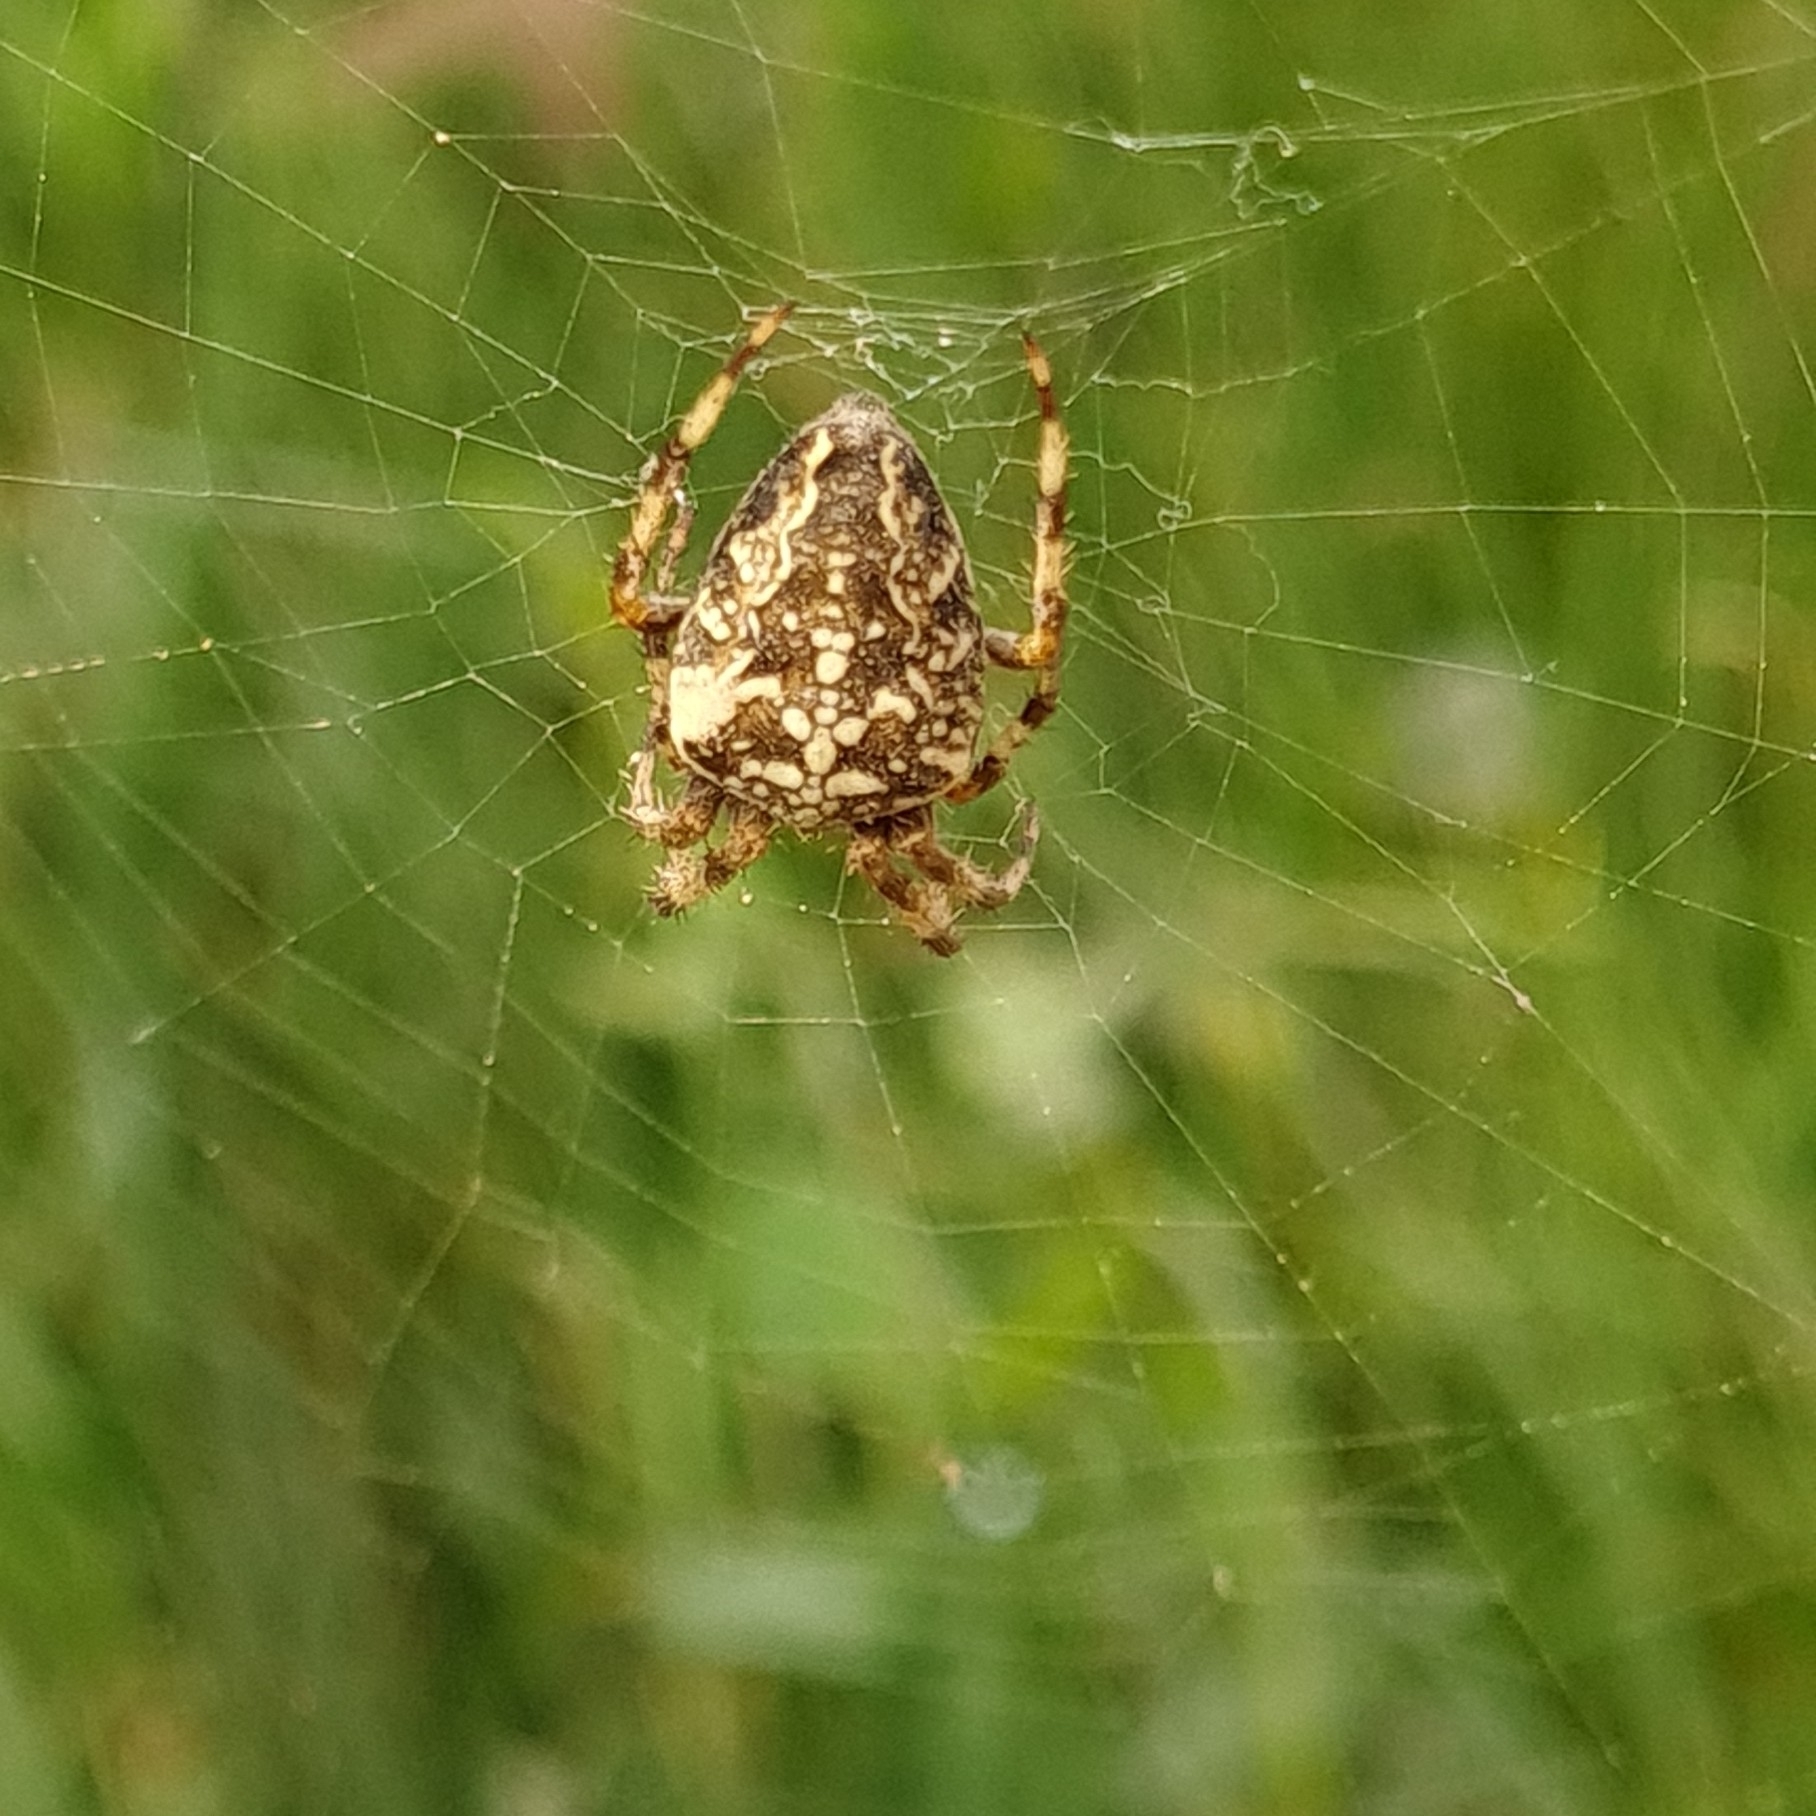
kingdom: Animalia
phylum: Arthropoda
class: Arachnida
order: Araneae
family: Araneidae
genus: Araneus
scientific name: Araneus diadematus
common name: Cross orbweaver
